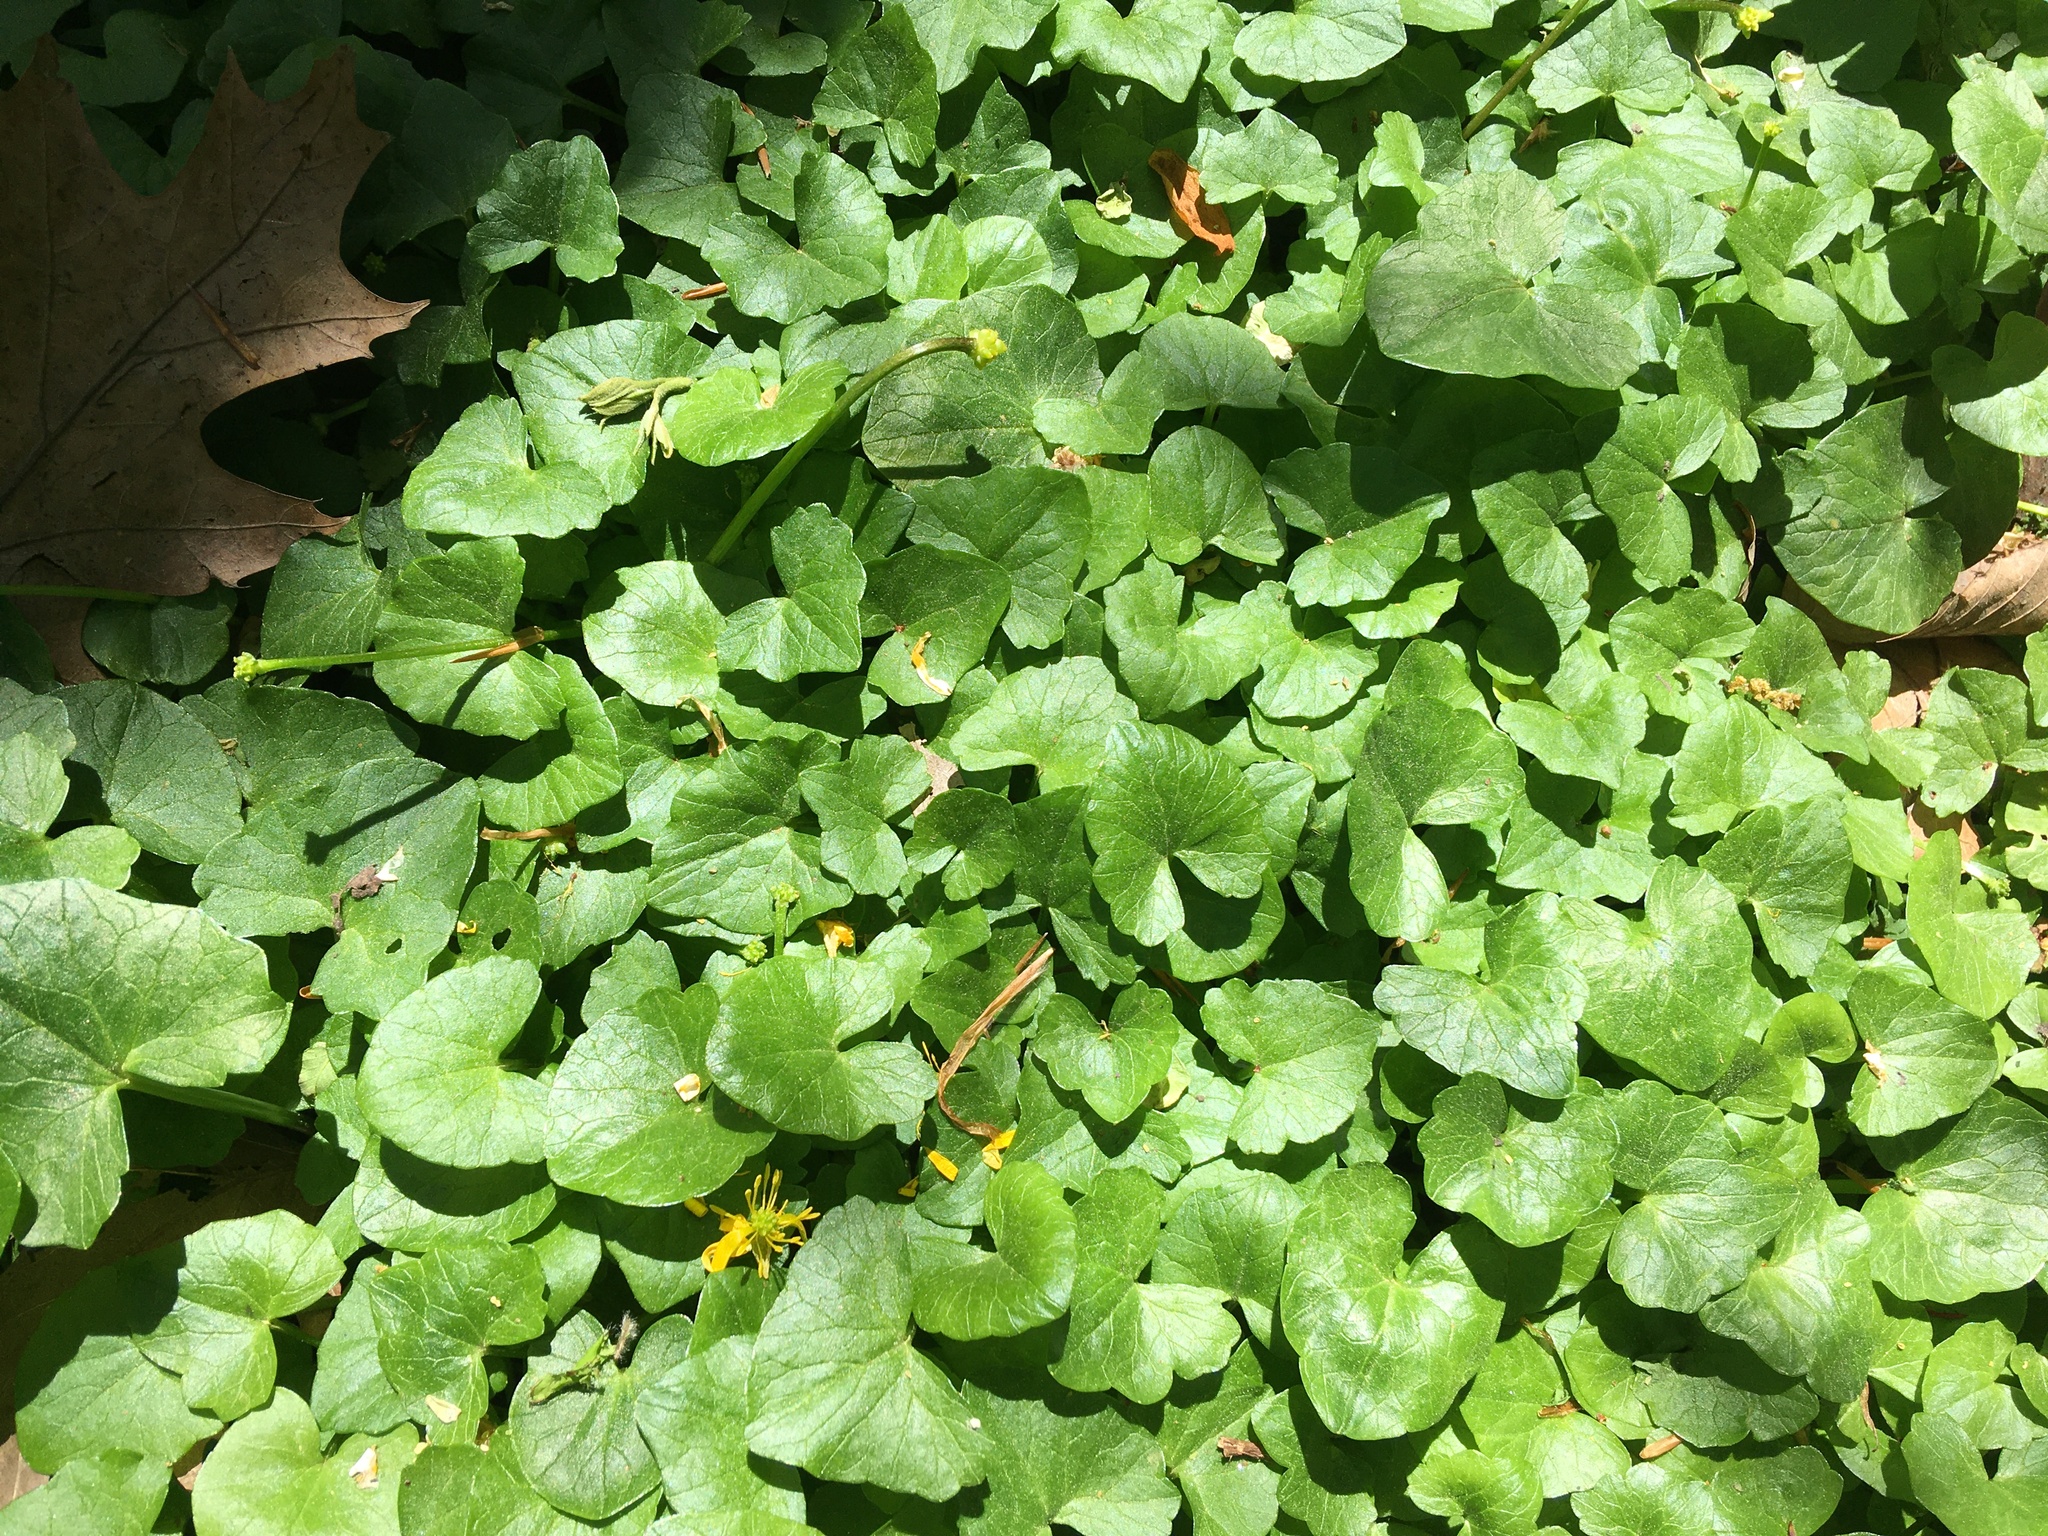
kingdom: Plantae
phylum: Tracheophyta
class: Magnoliopsida
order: Ranunculales
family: Ranunculaceae
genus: Ficaria
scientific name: Ficaria verna
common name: Lesser celandine
